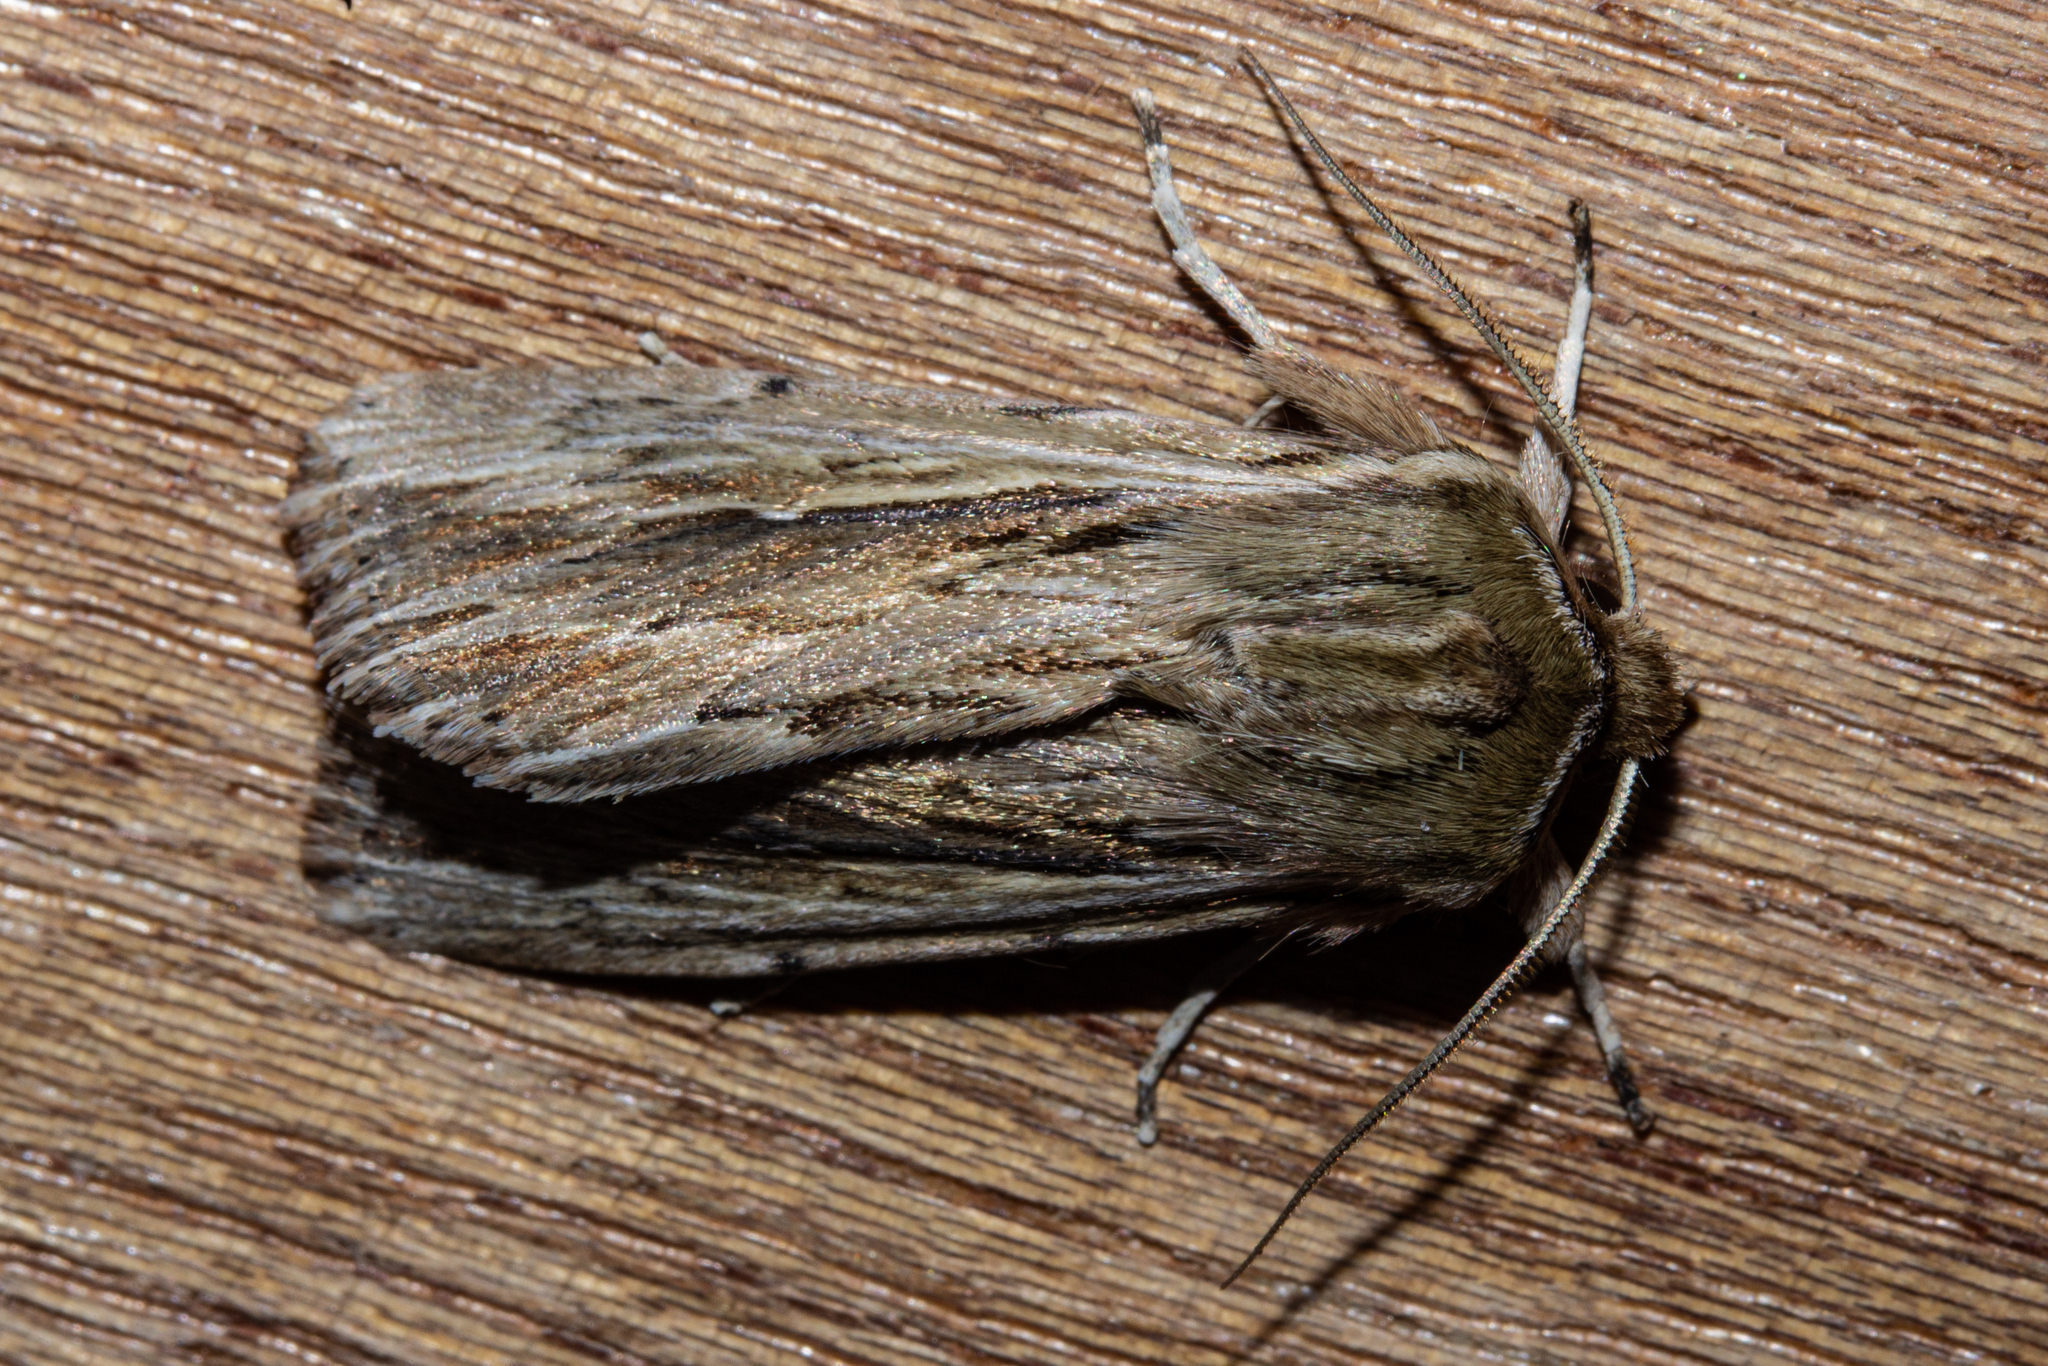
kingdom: Animalia
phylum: Arthropoda
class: Insecta
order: Lepidoptera
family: Noctuidae
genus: Persectania
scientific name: Persectania aversa
